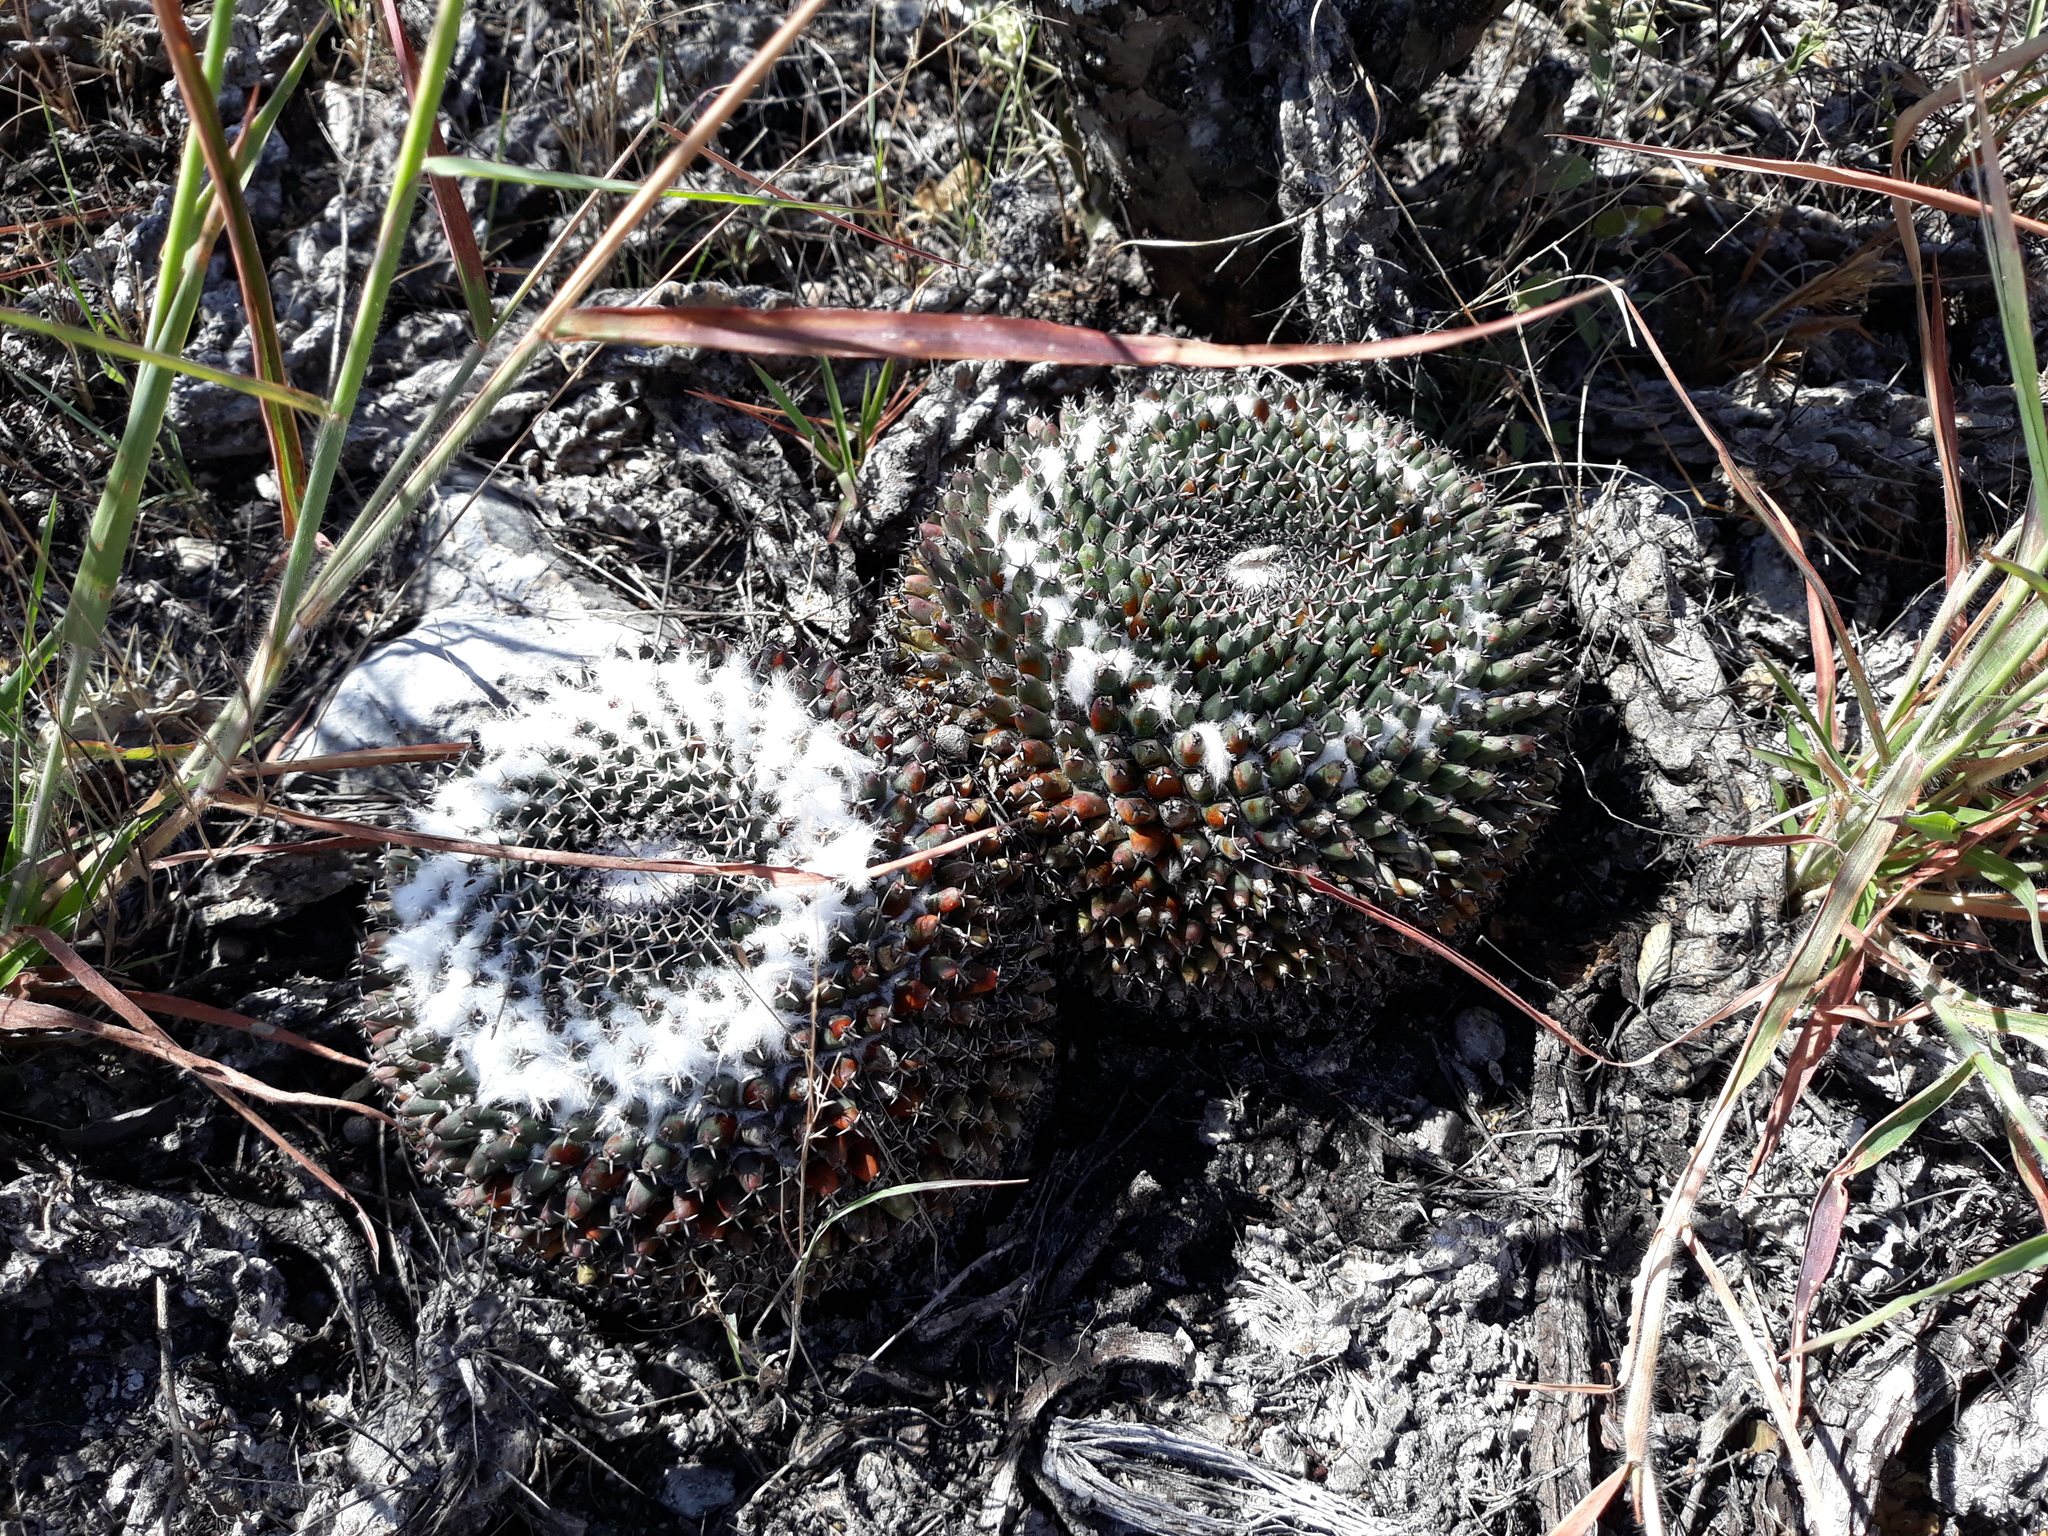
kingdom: Plantae
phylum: Tracheophyta
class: Magnoliopsida
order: Caryophyllales
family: Cactaceae
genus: Mammillaria
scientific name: Mammillaria
